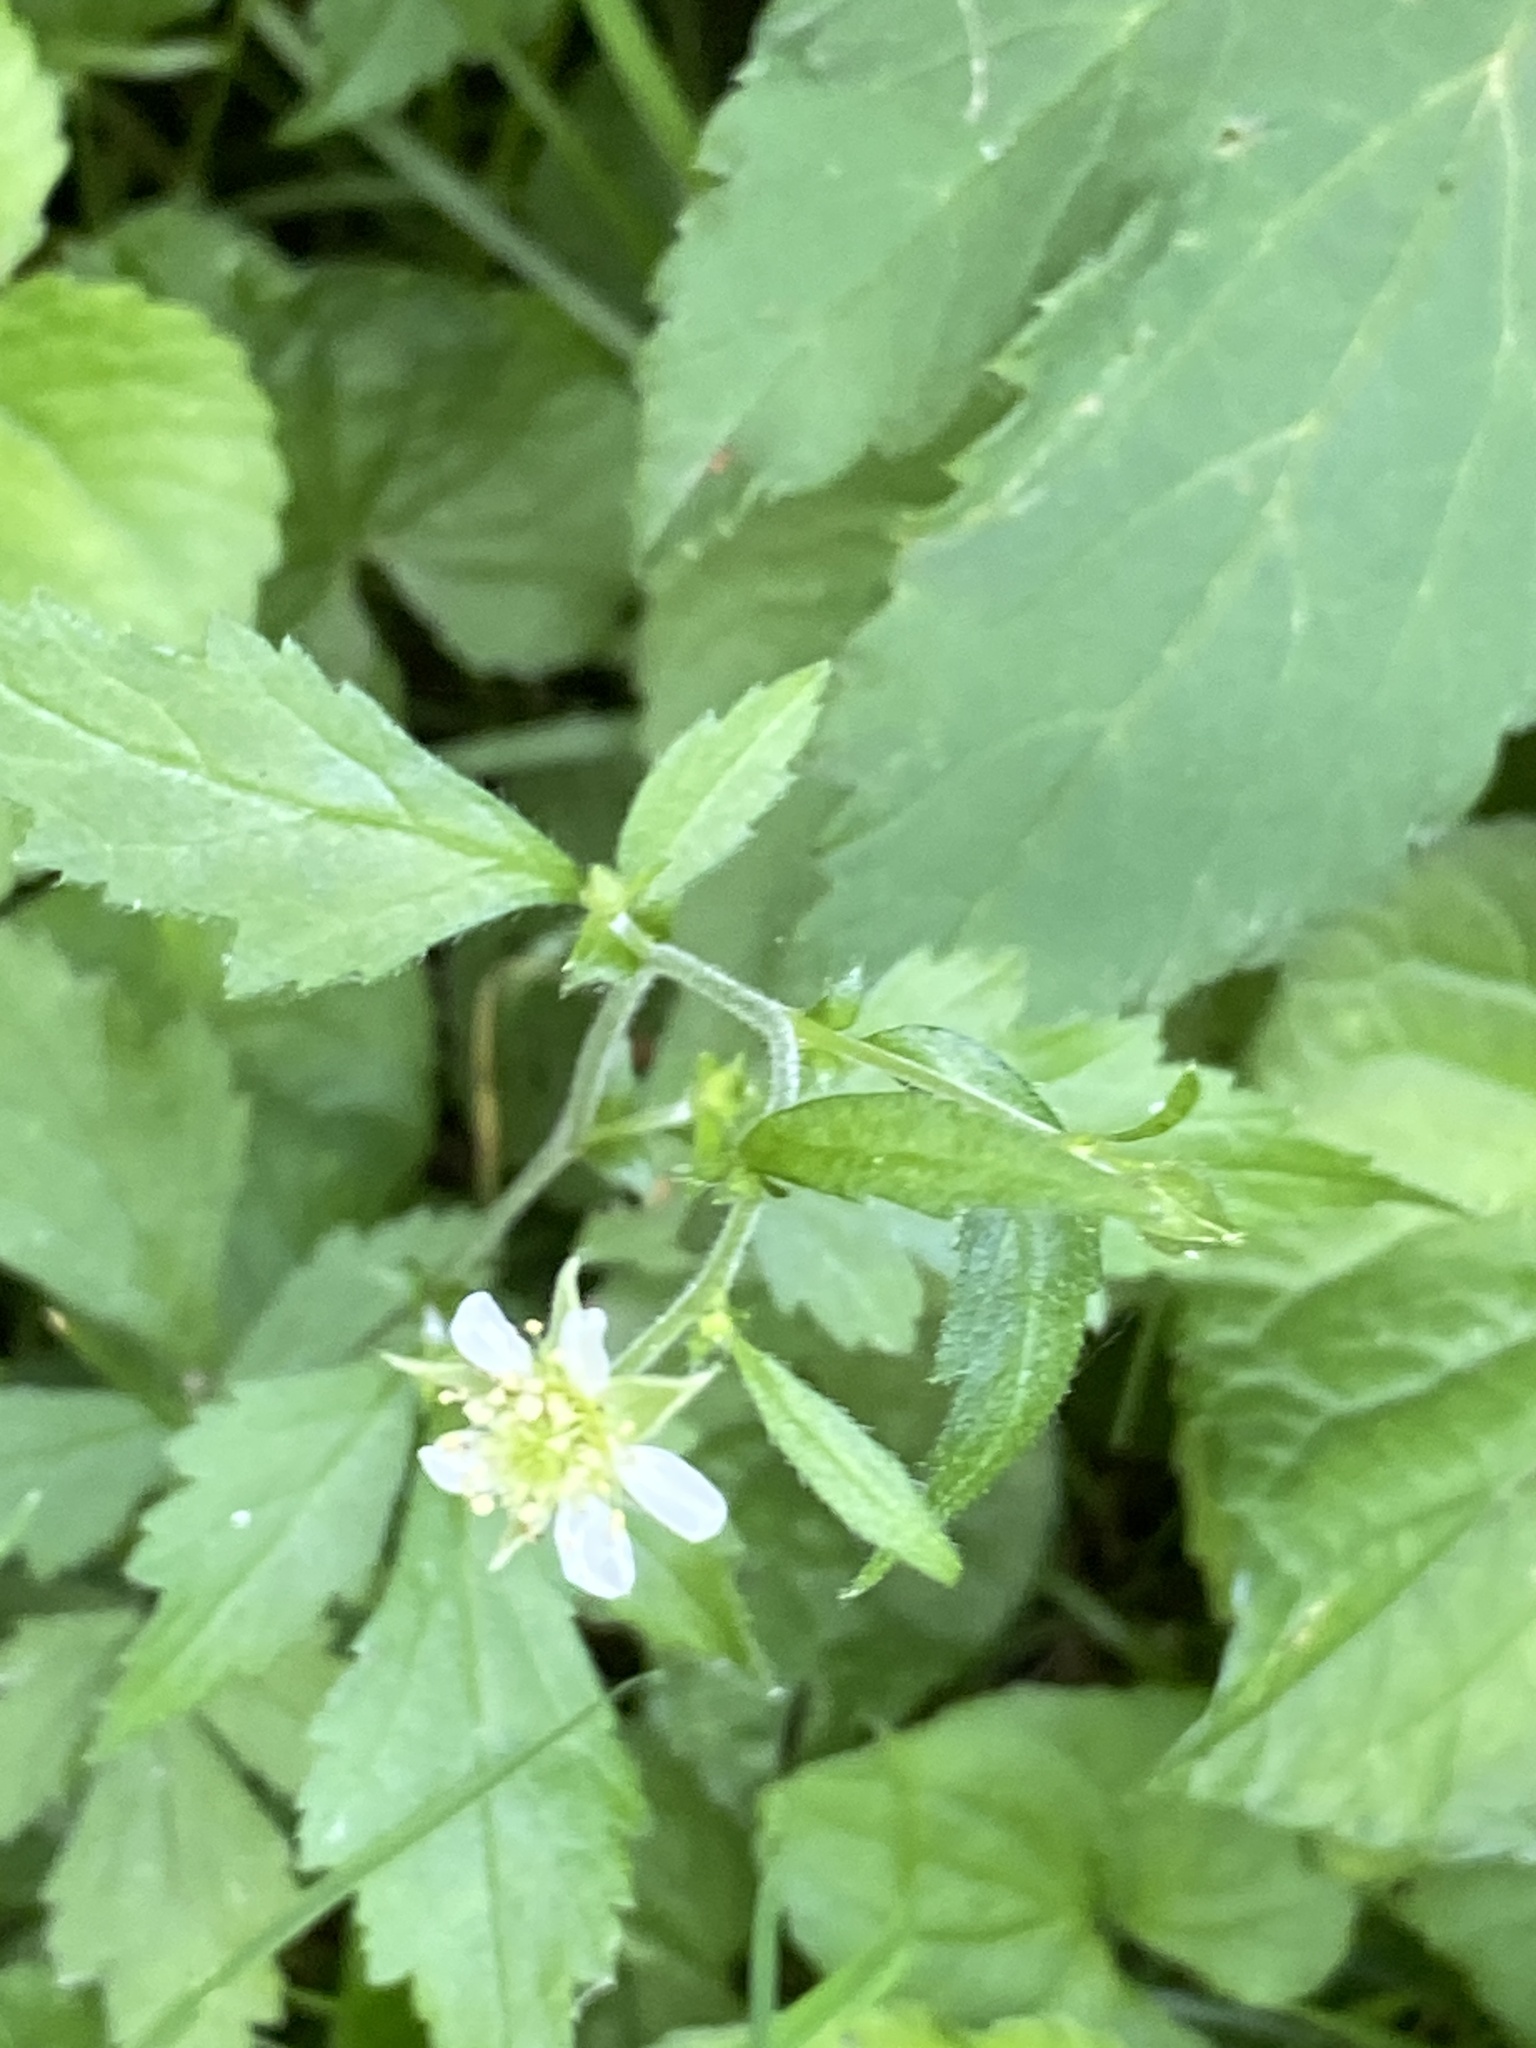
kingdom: Plantae
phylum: Tracheophyta
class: Magnoliopsida
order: Rosales
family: Rosaceae
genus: Geum
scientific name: Geum canadense
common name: White avens
